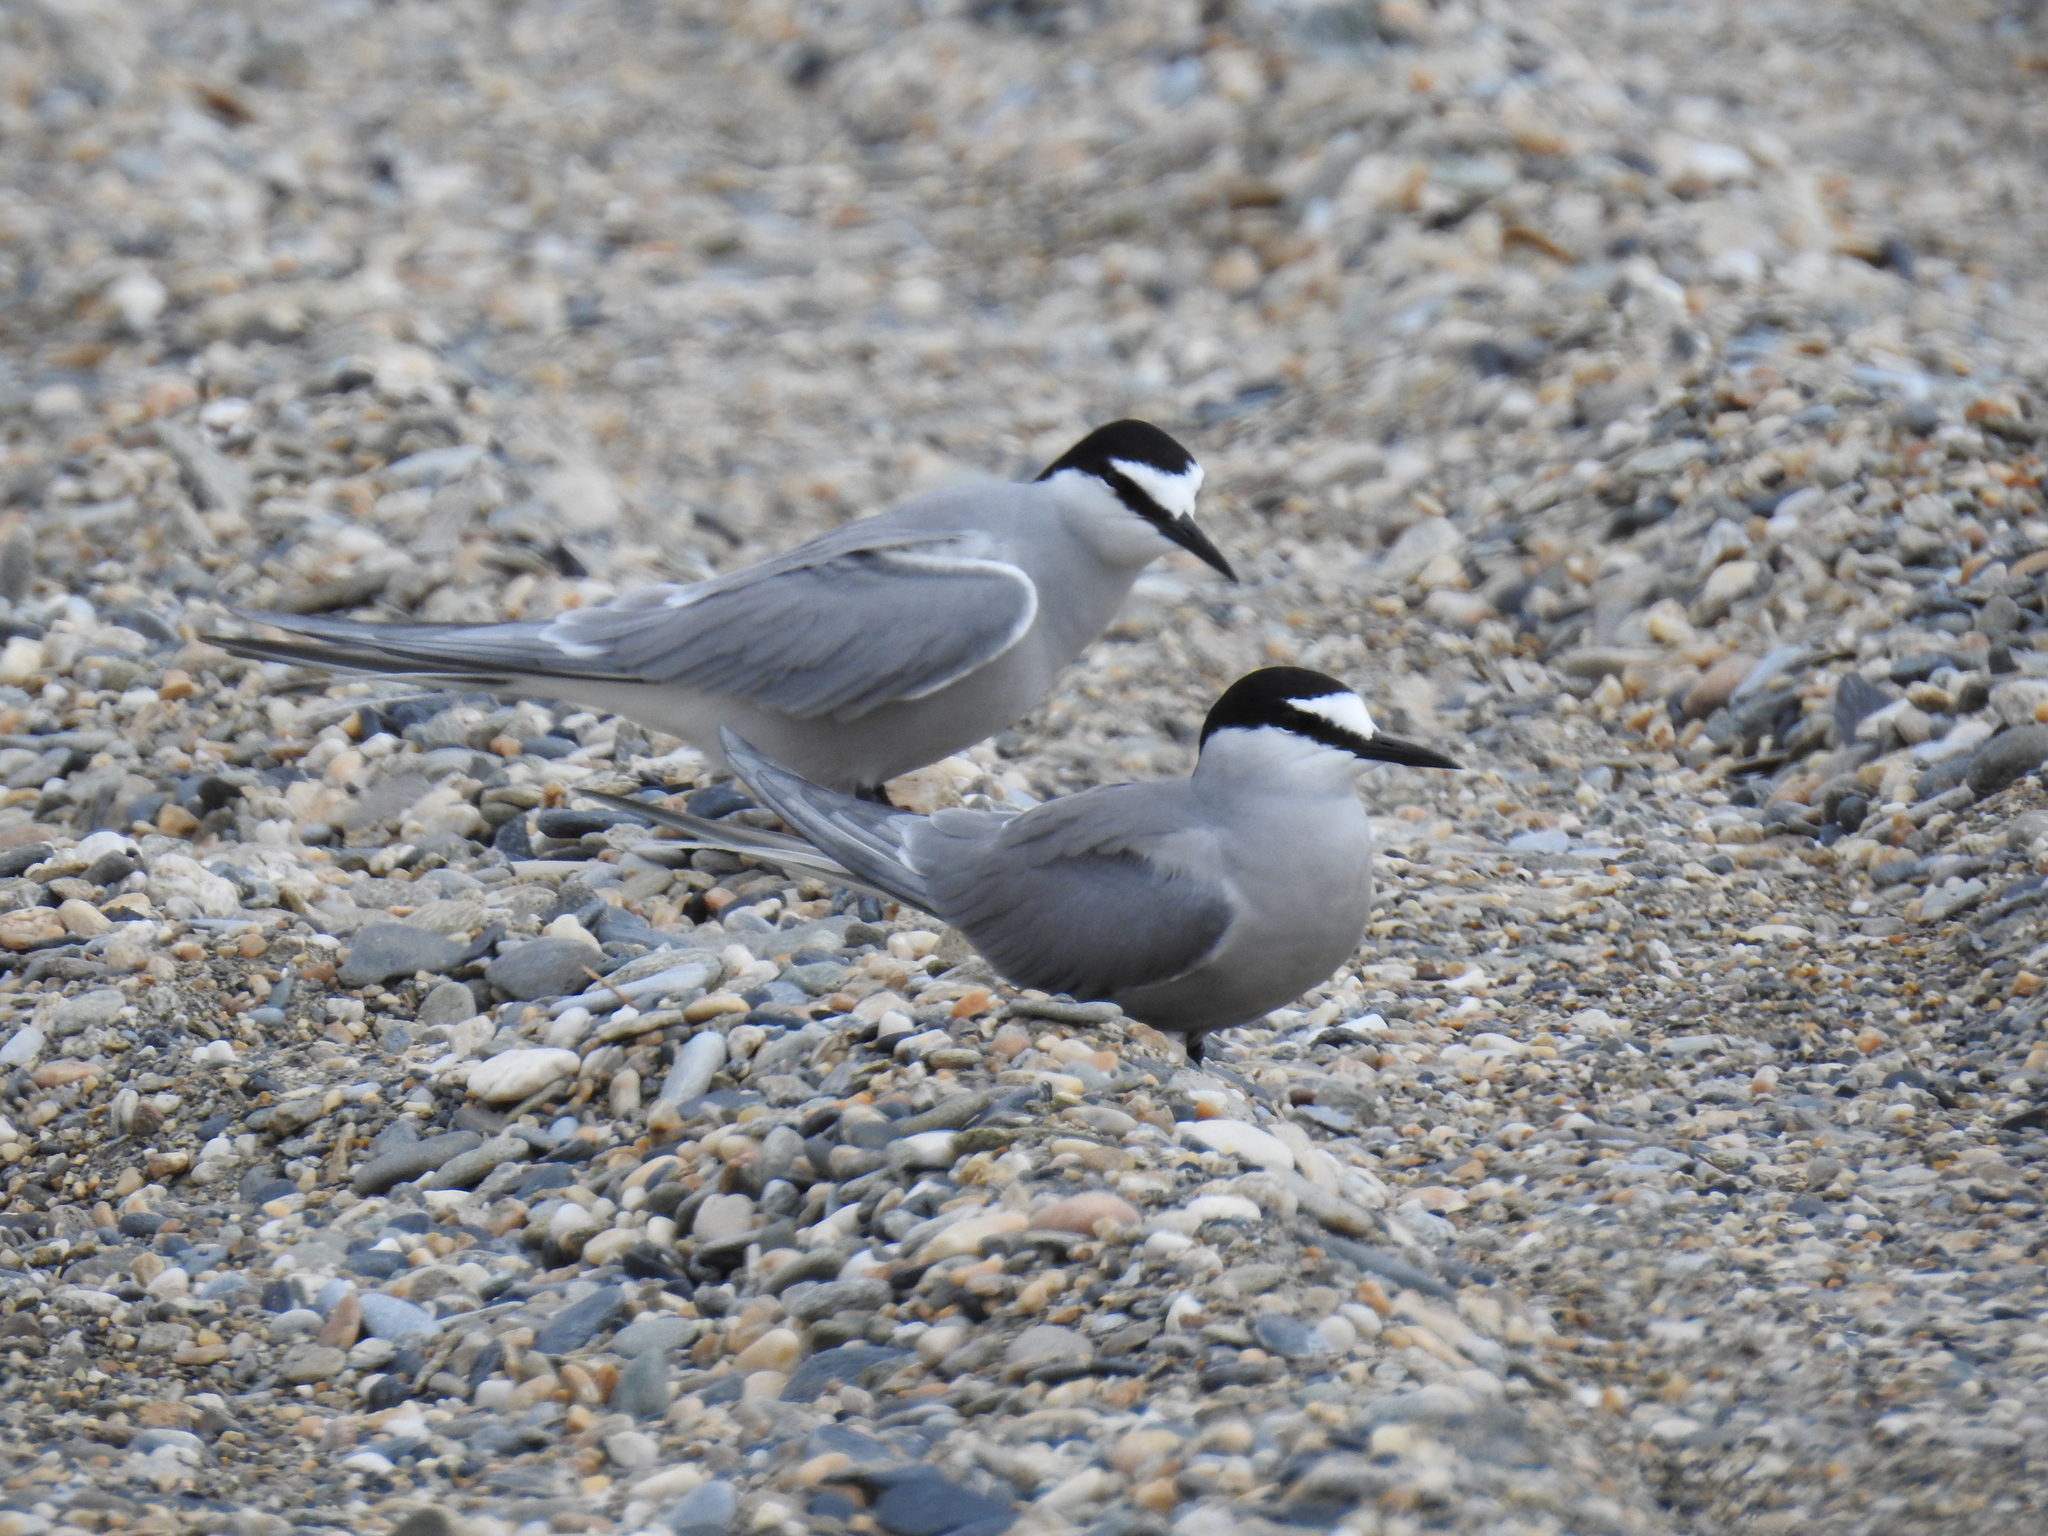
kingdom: Animalia
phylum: Chordata
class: Aves
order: Charadriiformes
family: Laridae
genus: Onychoprion
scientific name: Onychoprion aleuticus
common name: Aleutian tern
